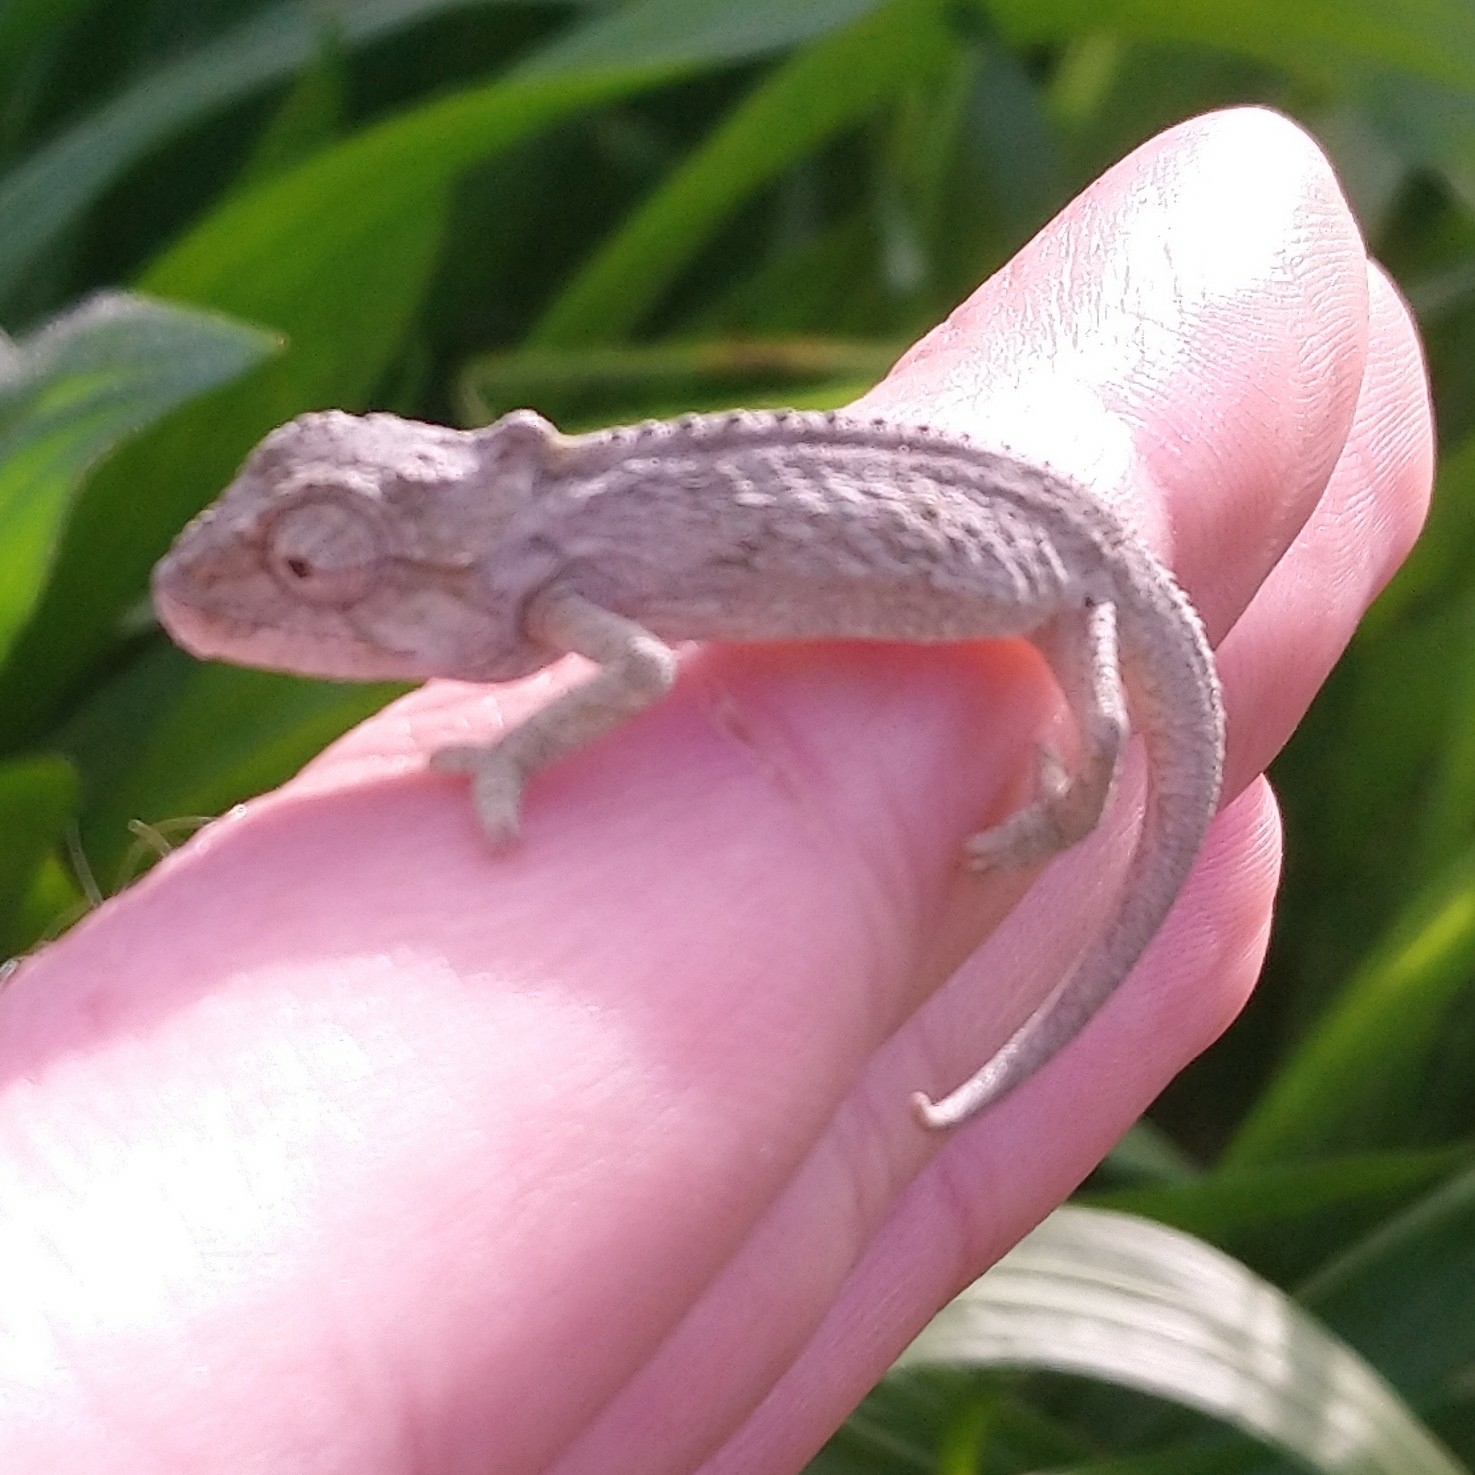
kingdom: Animalia
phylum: Chordata
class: Squamata
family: Chamaeleonidae
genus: Bradypodion
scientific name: Bradypodion ventrale
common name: Eastern cape dwarf chameleon
